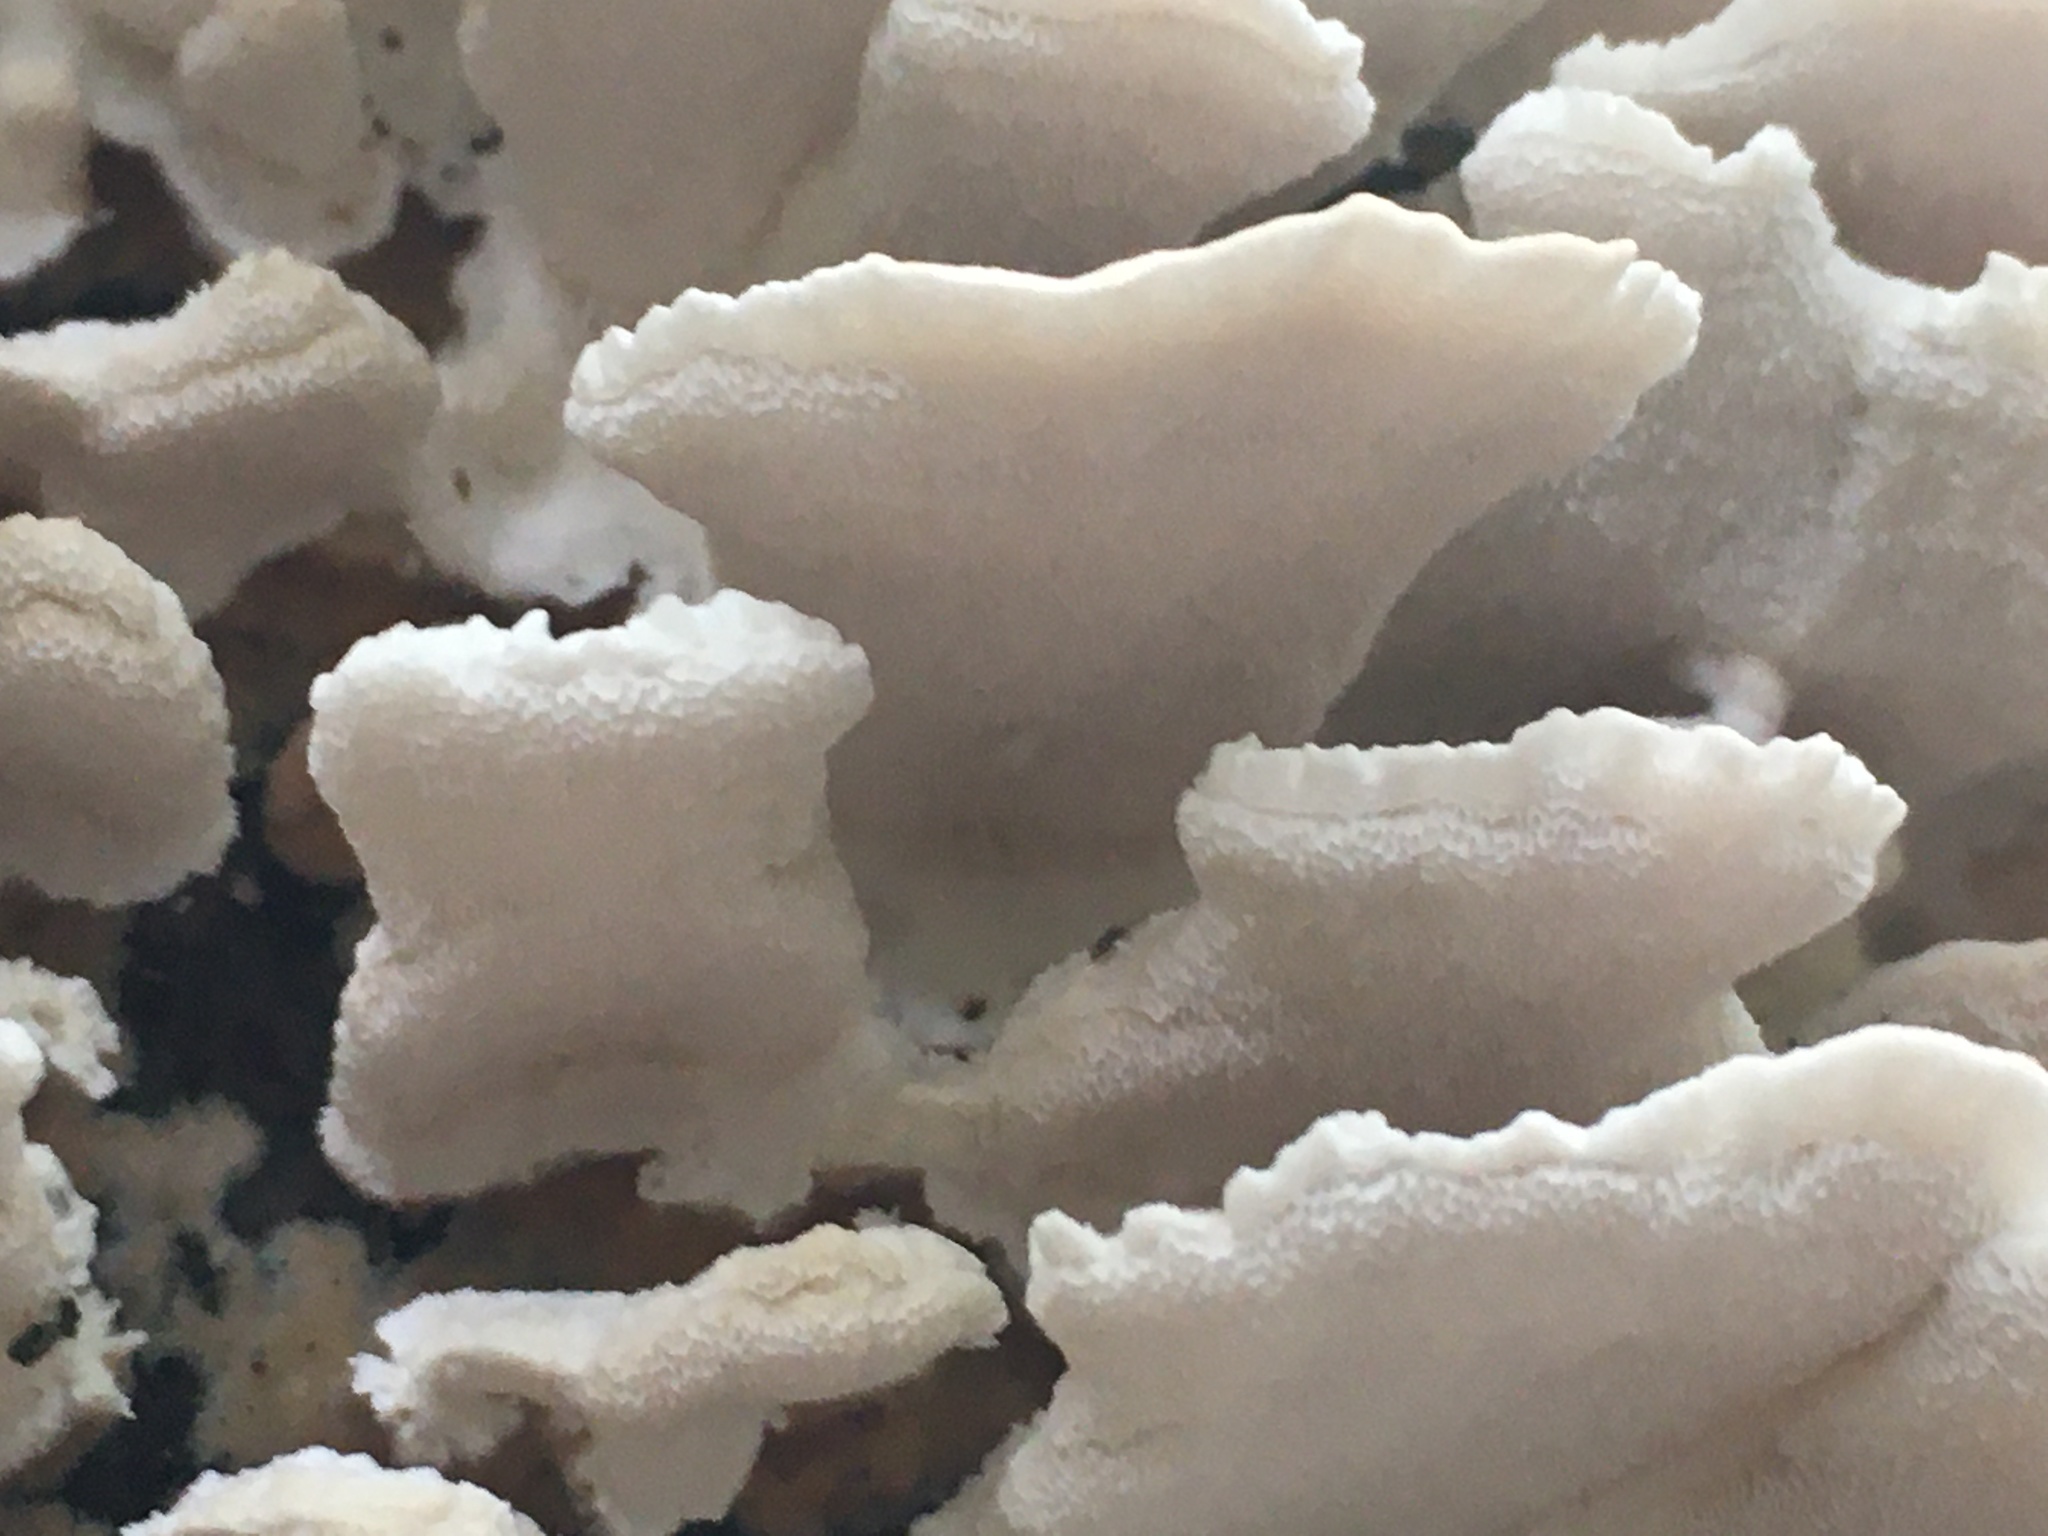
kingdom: Fungi
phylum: Basidiomycota
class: Agaricomycetes
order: Polyporales
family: Polyporaceae
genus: Trametes
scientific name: Trametes versicolor
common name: Turkeytail
